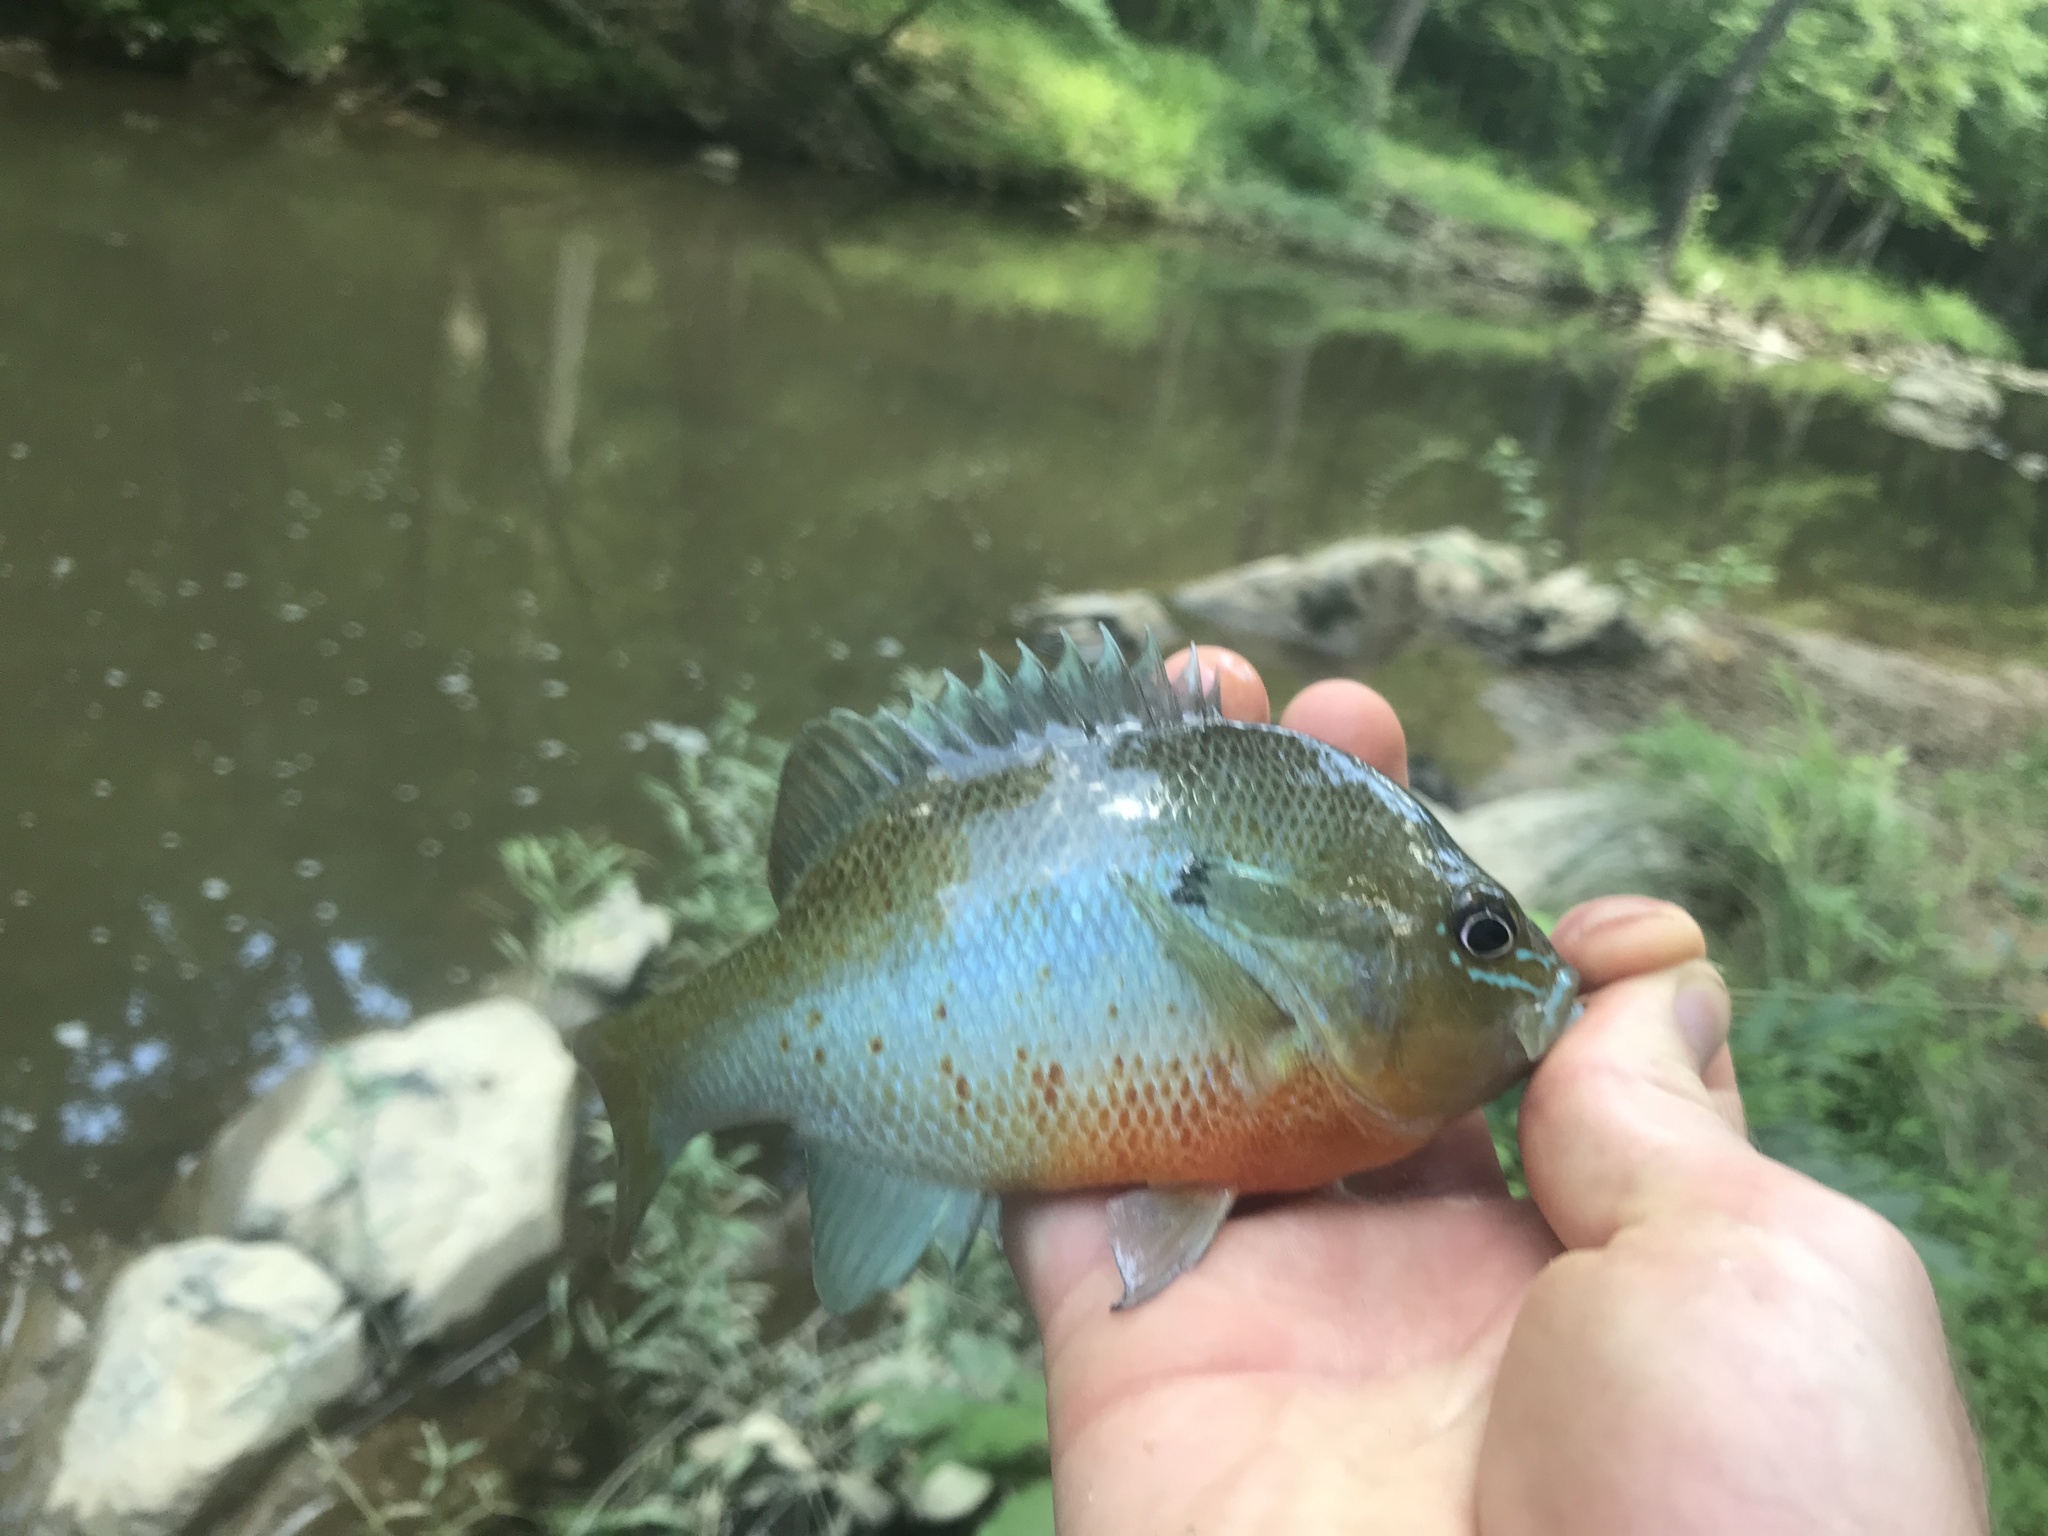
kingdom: Animalia
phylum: Chordata
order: Perciformes
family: Centrarchidae
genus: Lepomis
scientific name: Lepomis auritus
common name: Redbreast sunfish
